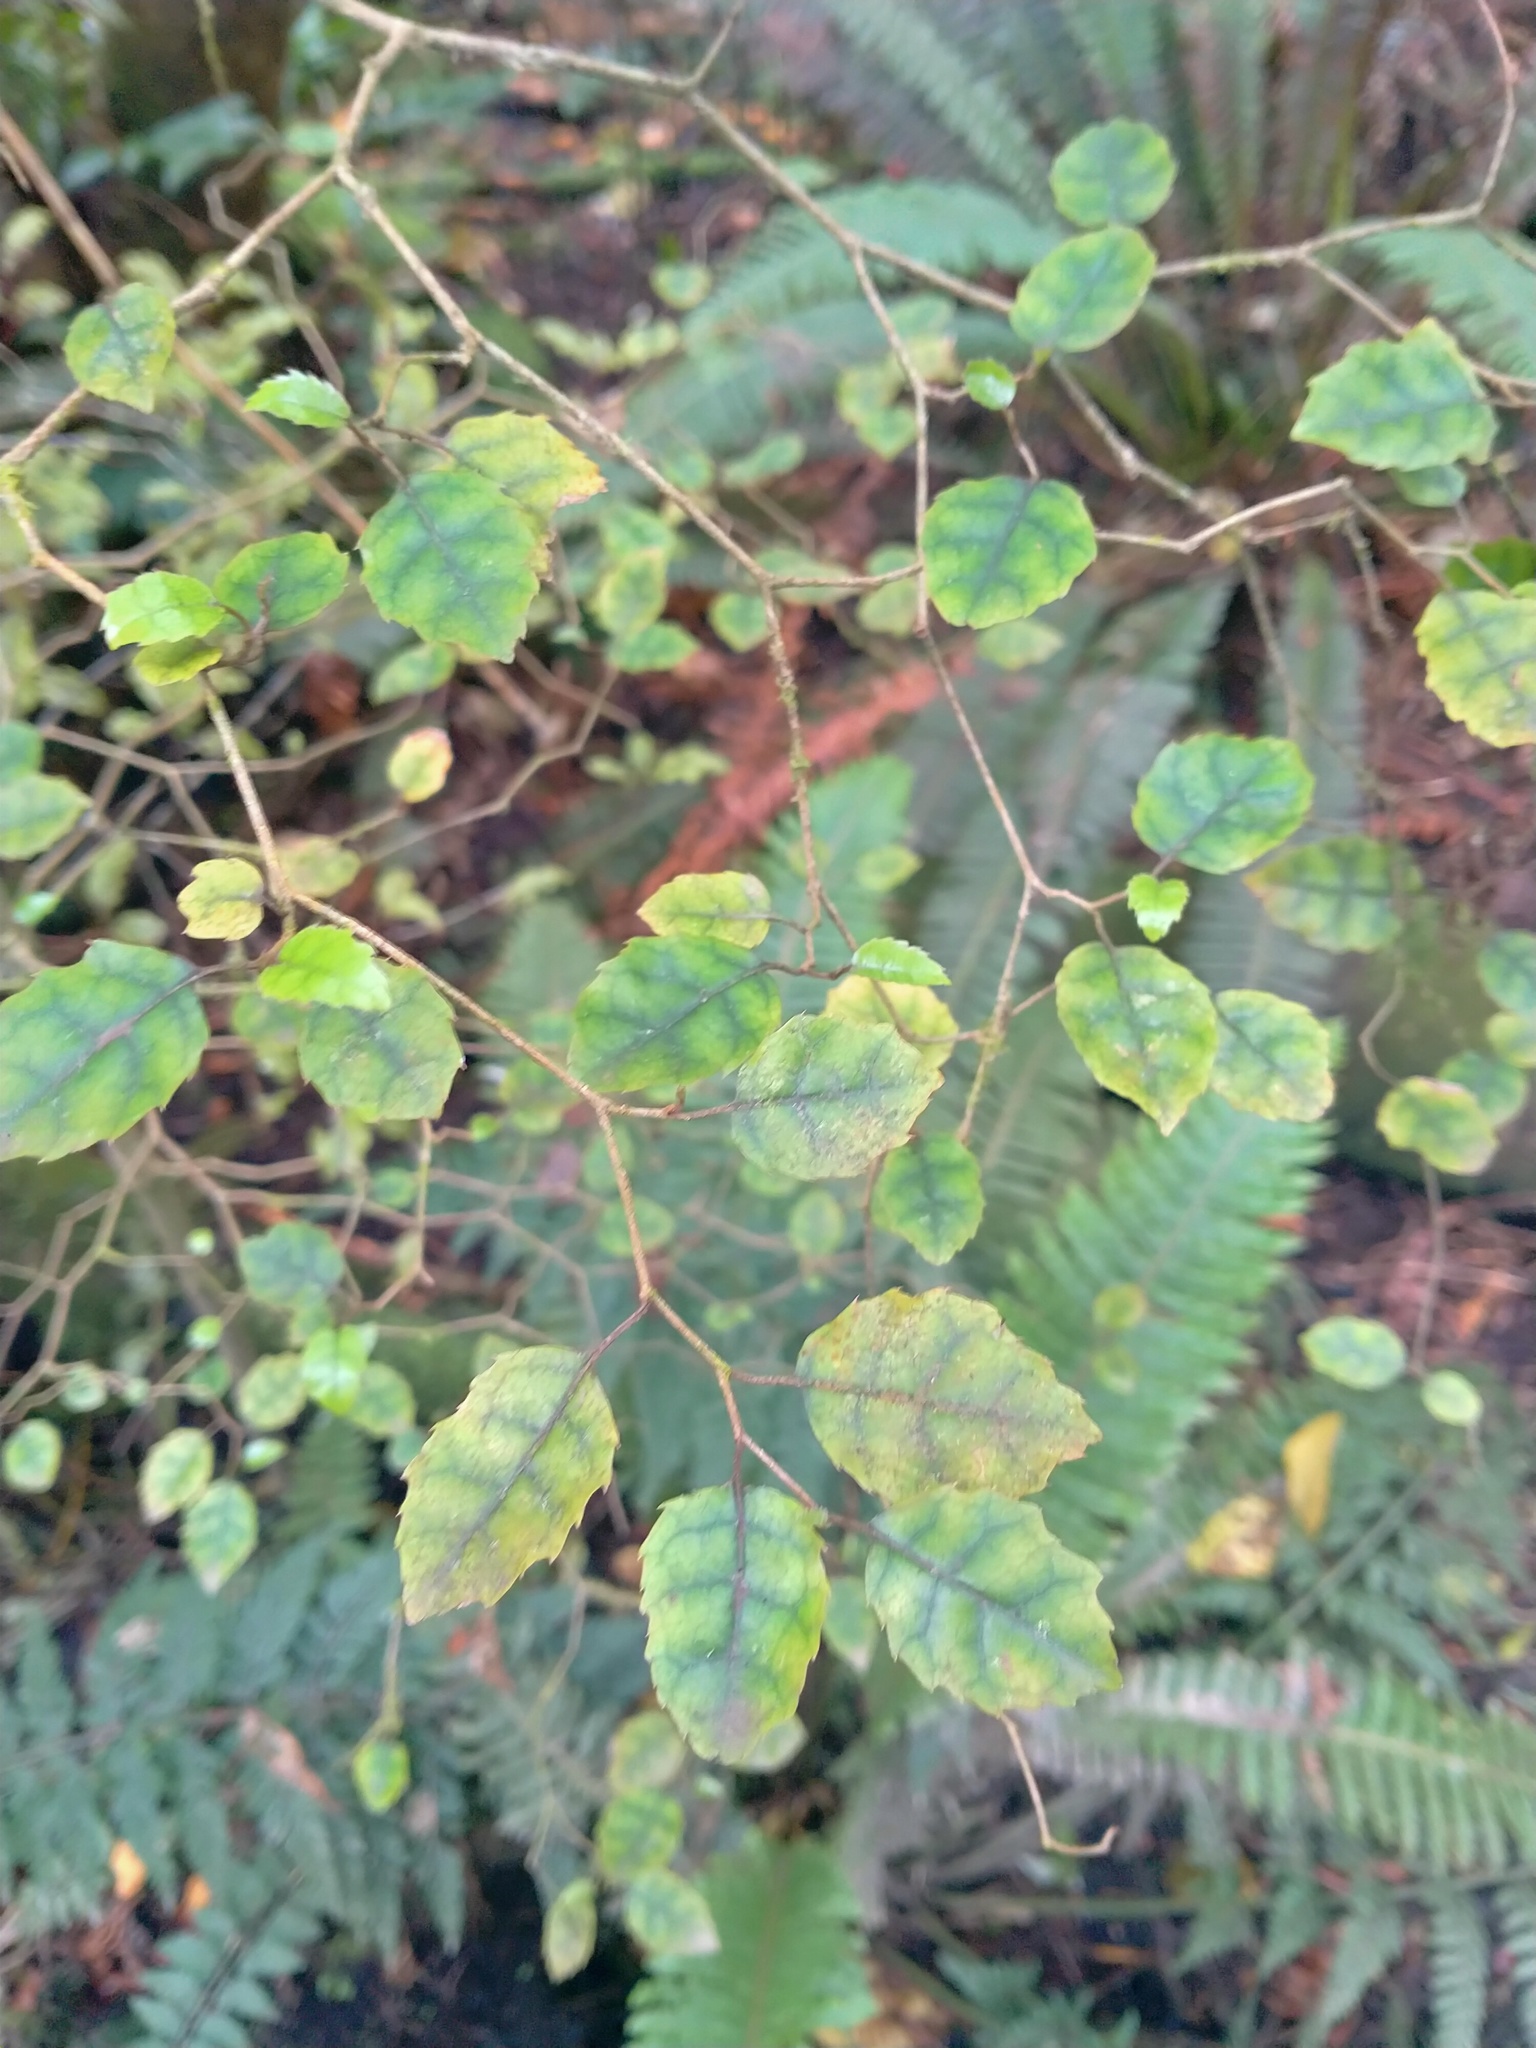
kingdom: Plantae
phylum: Tracheophyta
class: Magnoliopsida
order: Asterales
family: Rousseaceae
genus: Carpodetus
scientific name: Carpodetus serratus
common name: White mapau
